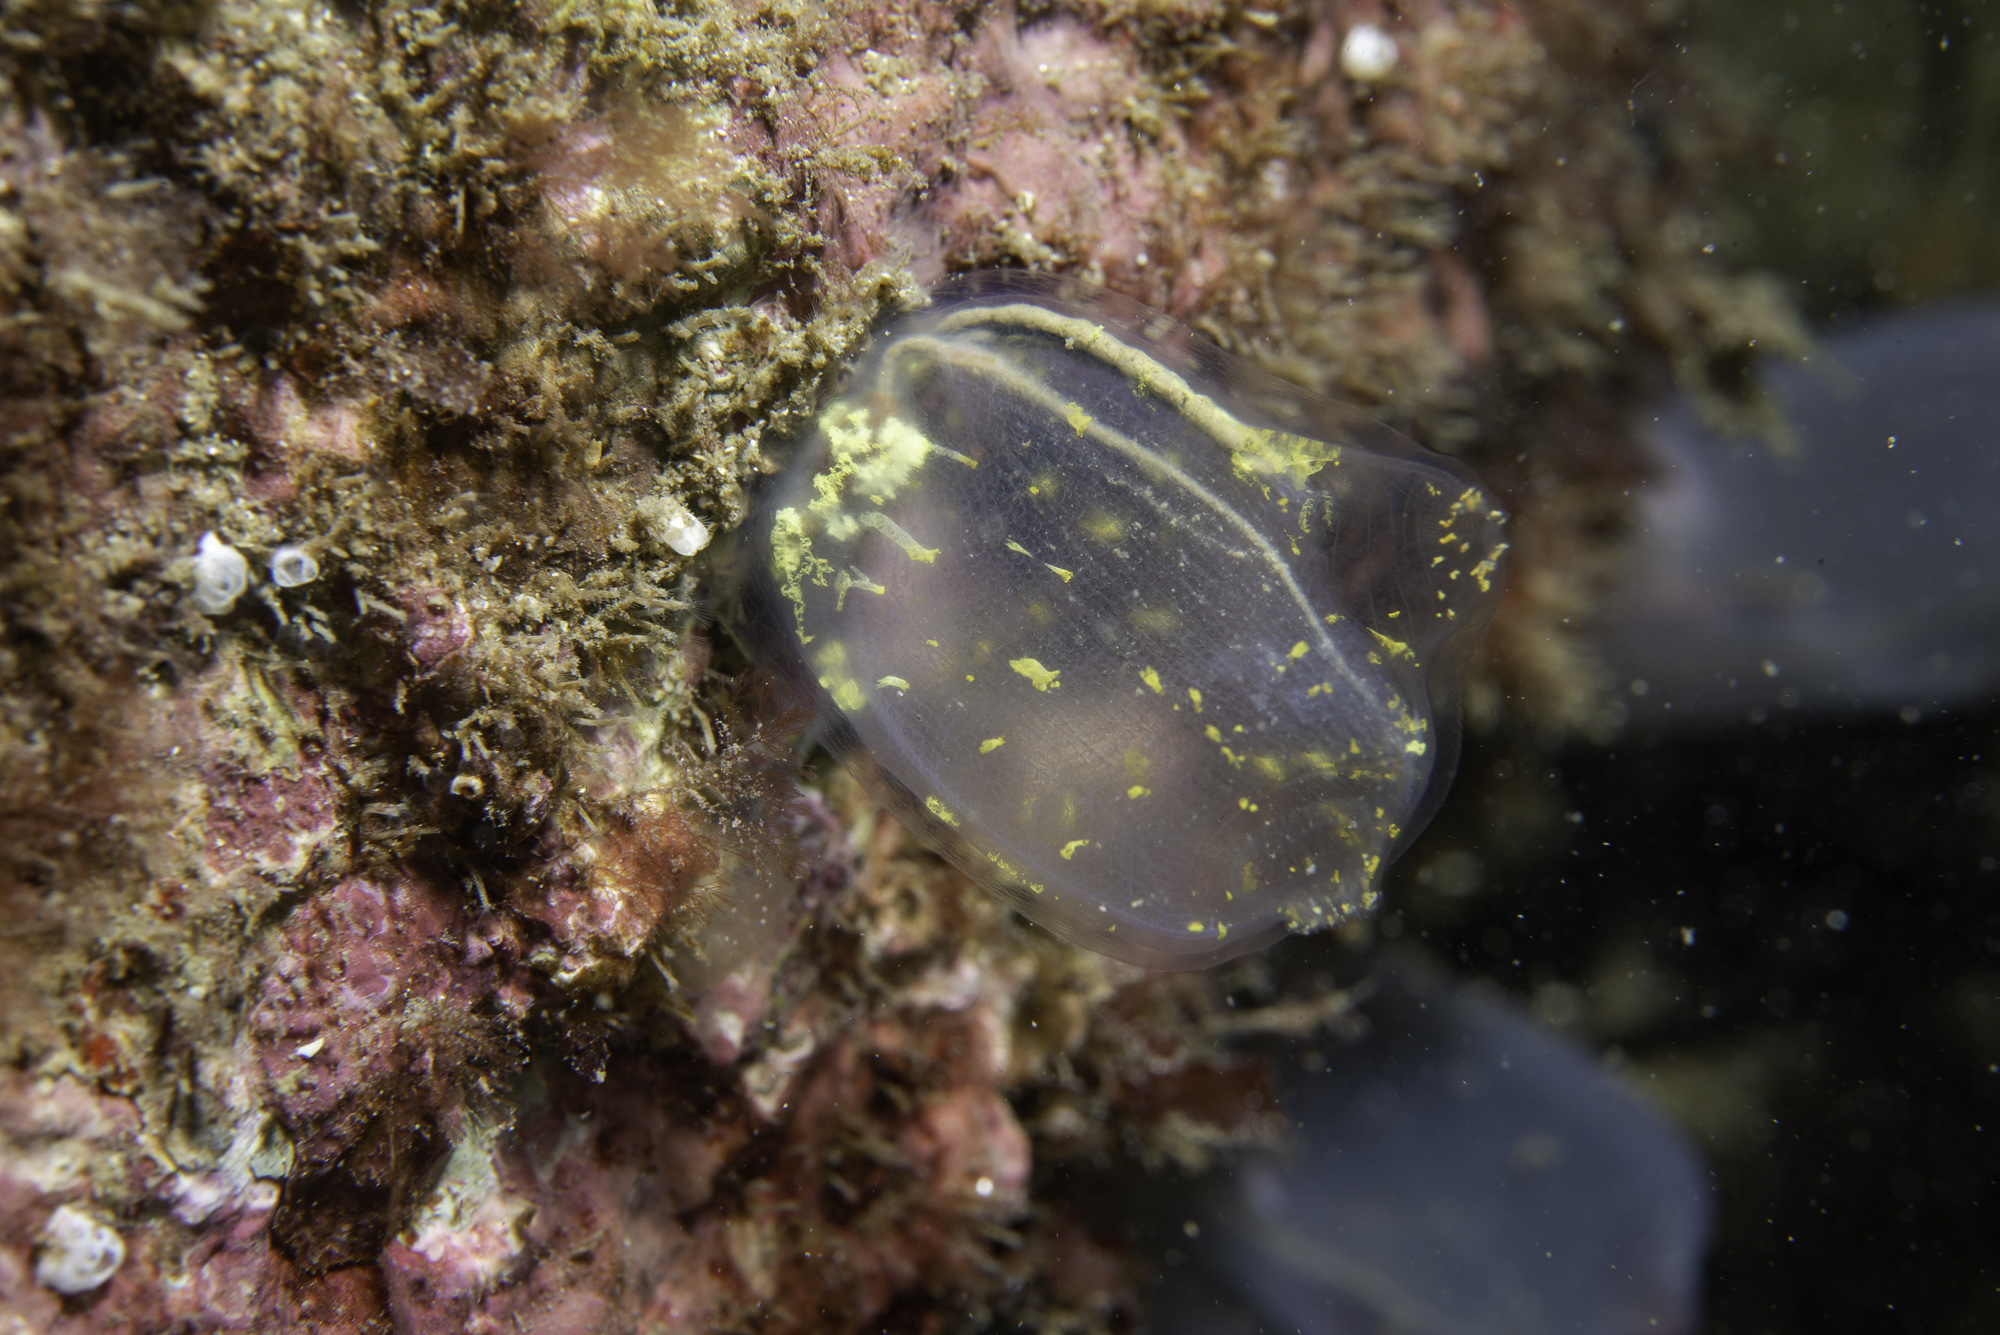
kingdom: Animalia
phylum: Chordata
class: Ascidiacea
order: Phlebobranchia
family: Corellidae
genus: Corella
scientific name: Corella parallelogramma
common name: Gas mantle ascidian
